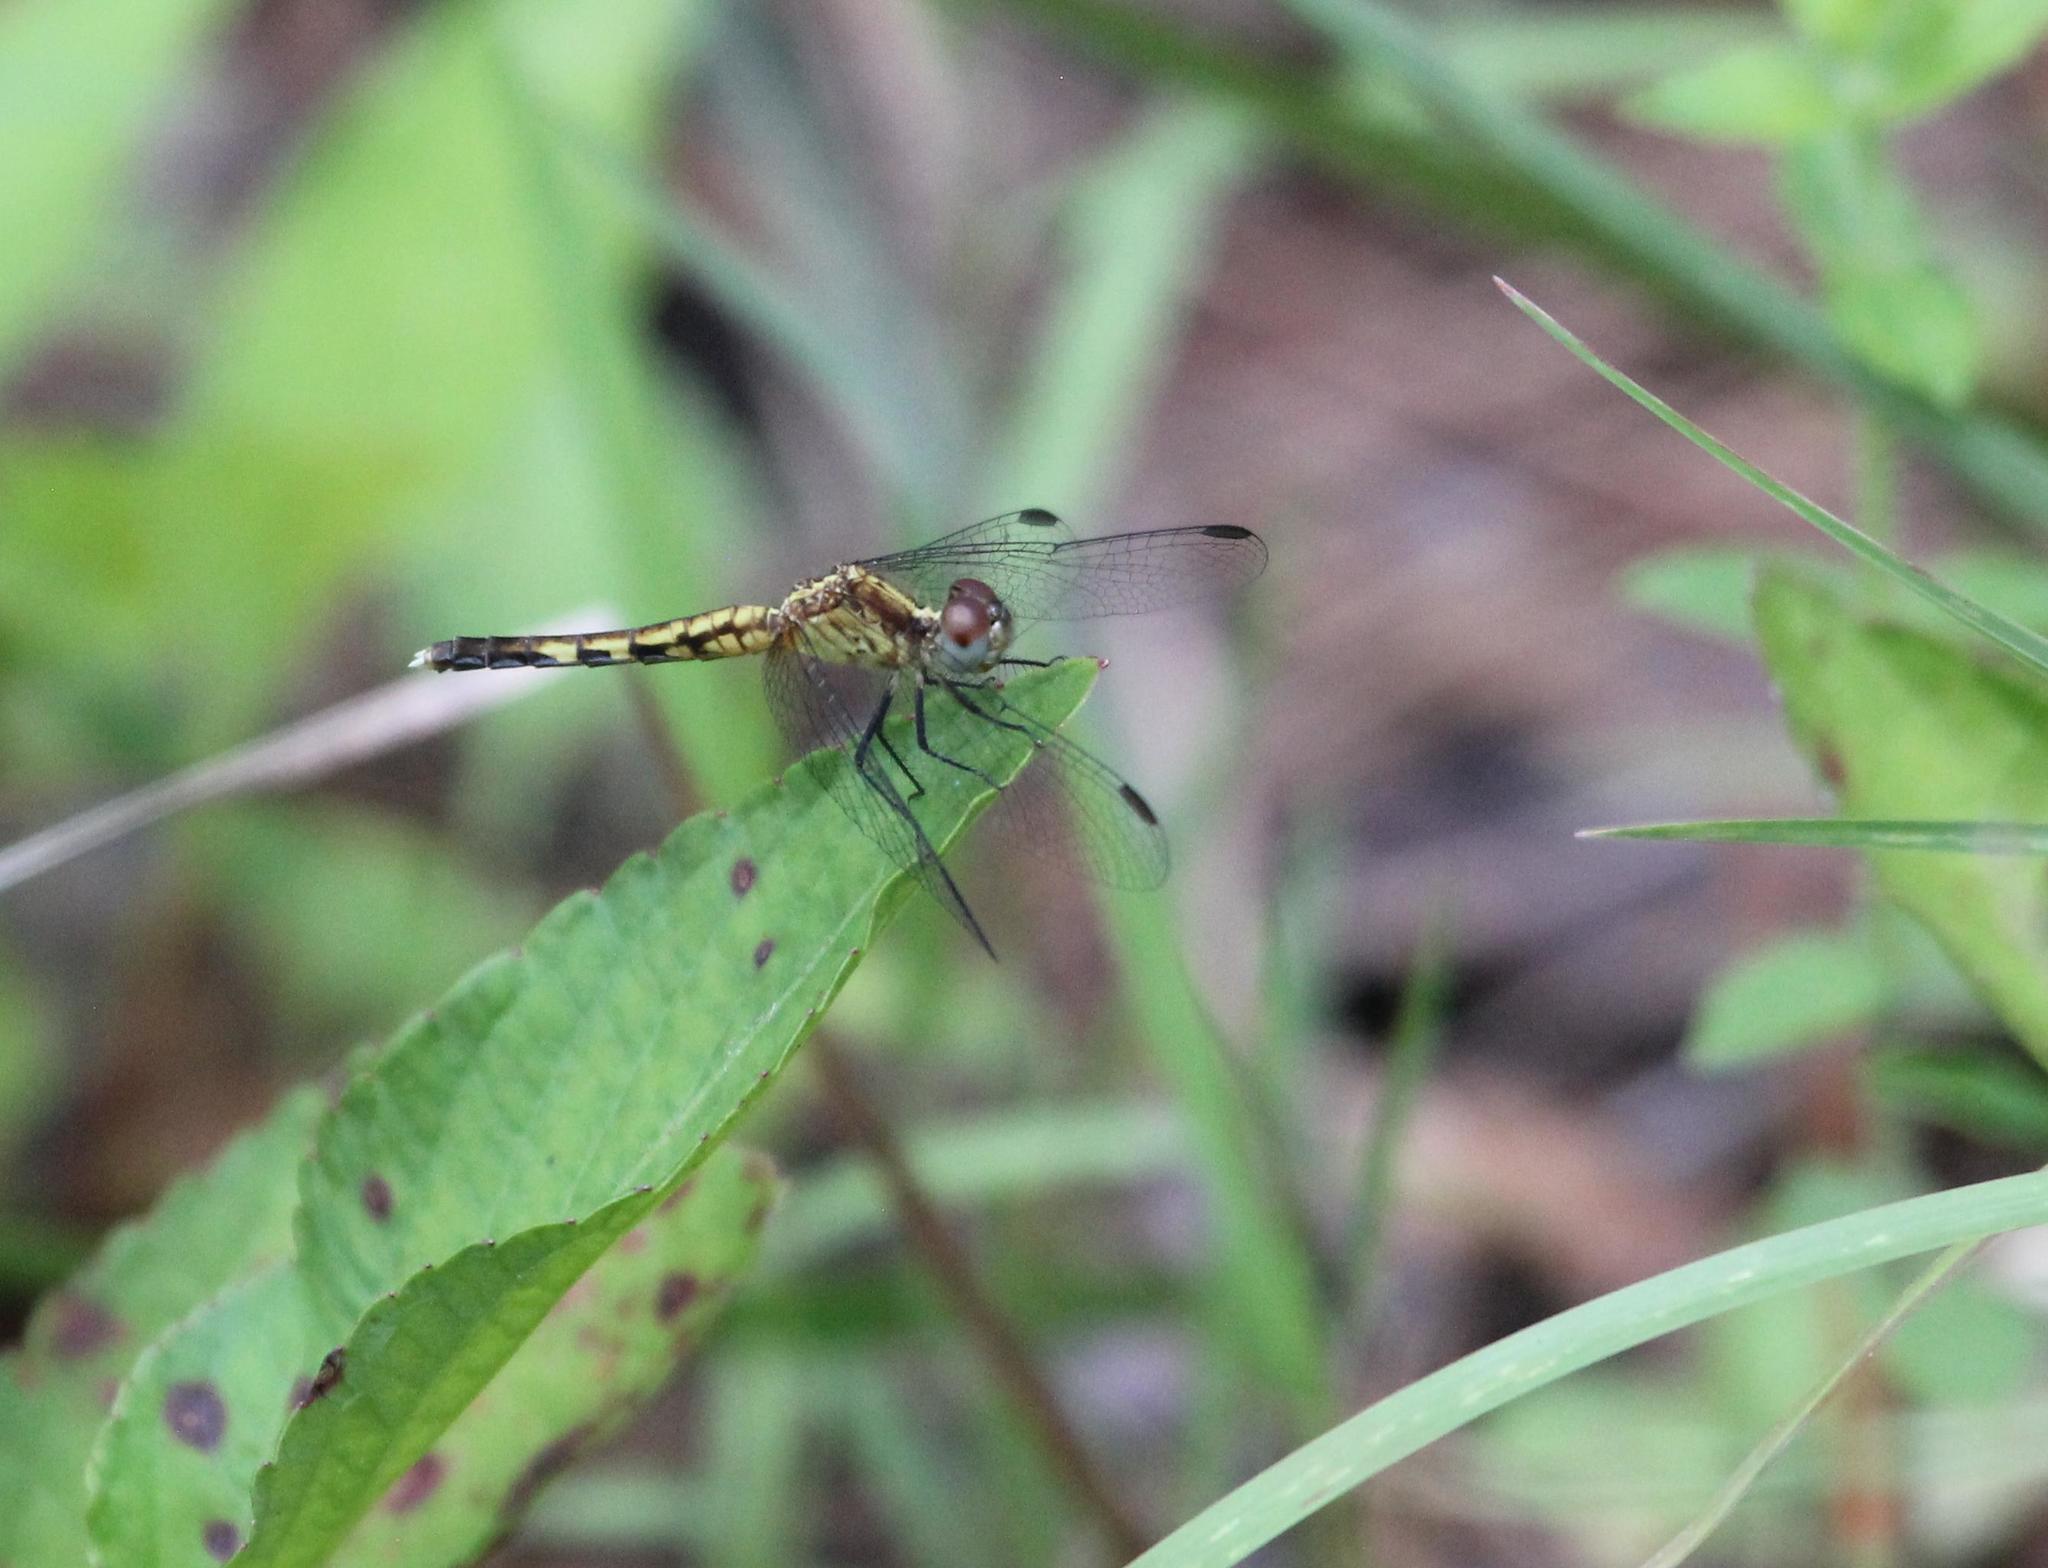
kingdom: Animalia
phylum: Arthropoda
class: Insecta
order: Odonata
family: Libellulidae
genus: Erythrodiplax
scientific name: Erythrodiplax minuscula
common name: Little blue dragonlet
